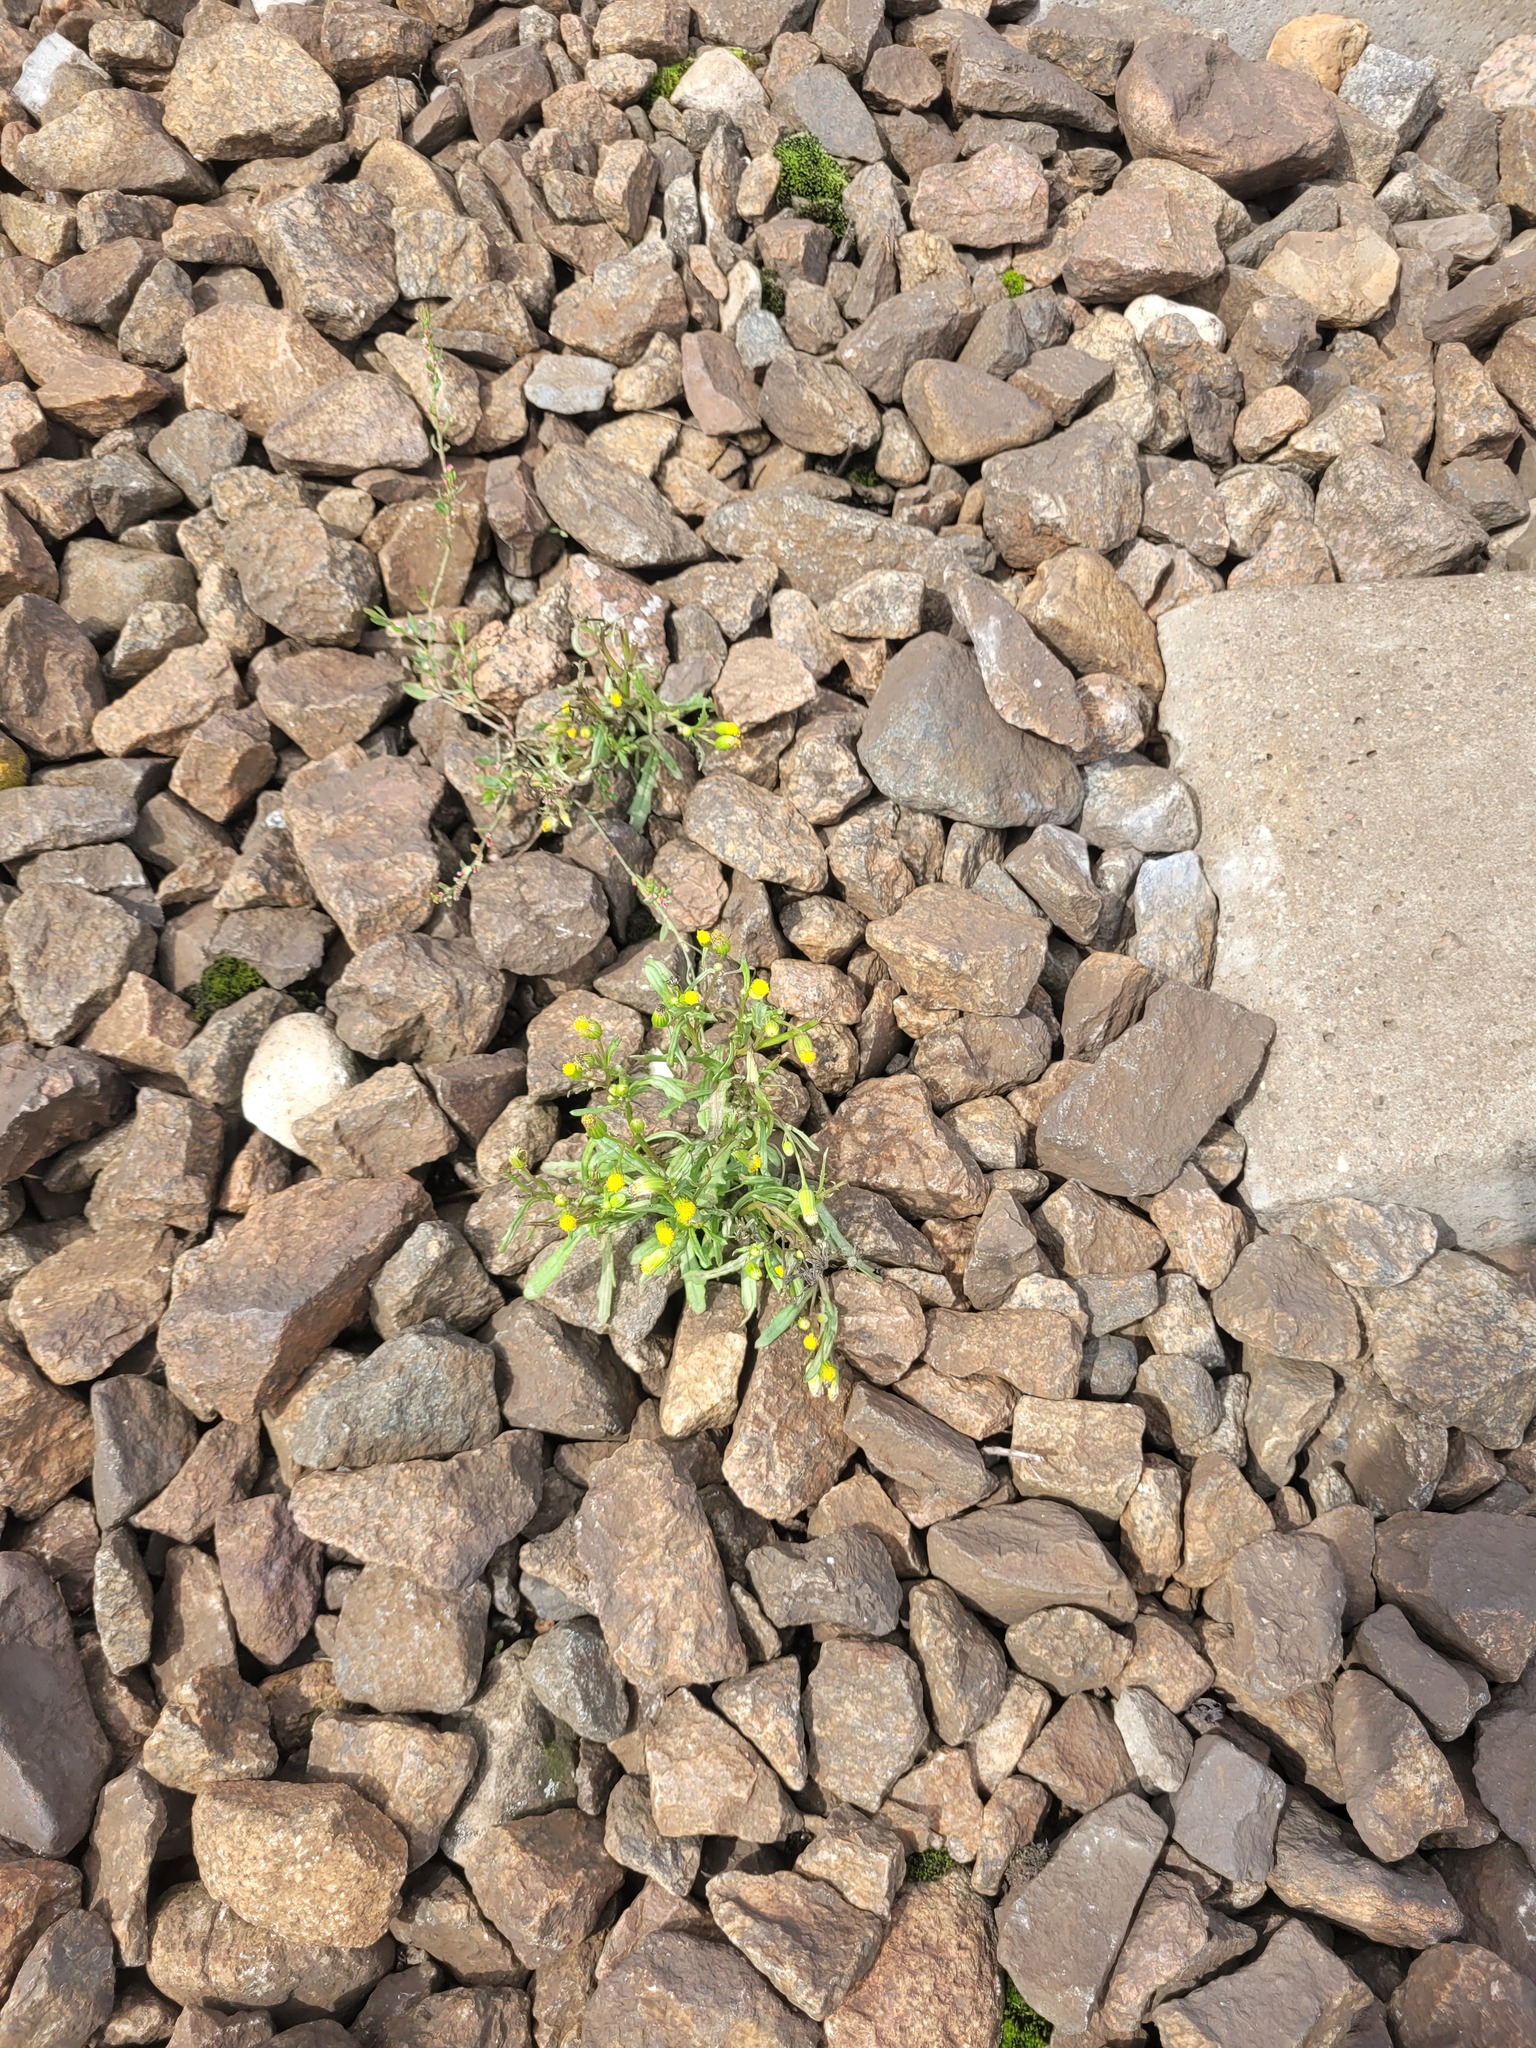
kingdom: Plantae
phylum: Tracheophyta
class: Magnoliopsida
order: Asterales
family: Asteraceae
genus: Senecio
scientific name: Senecio dubitabilis
